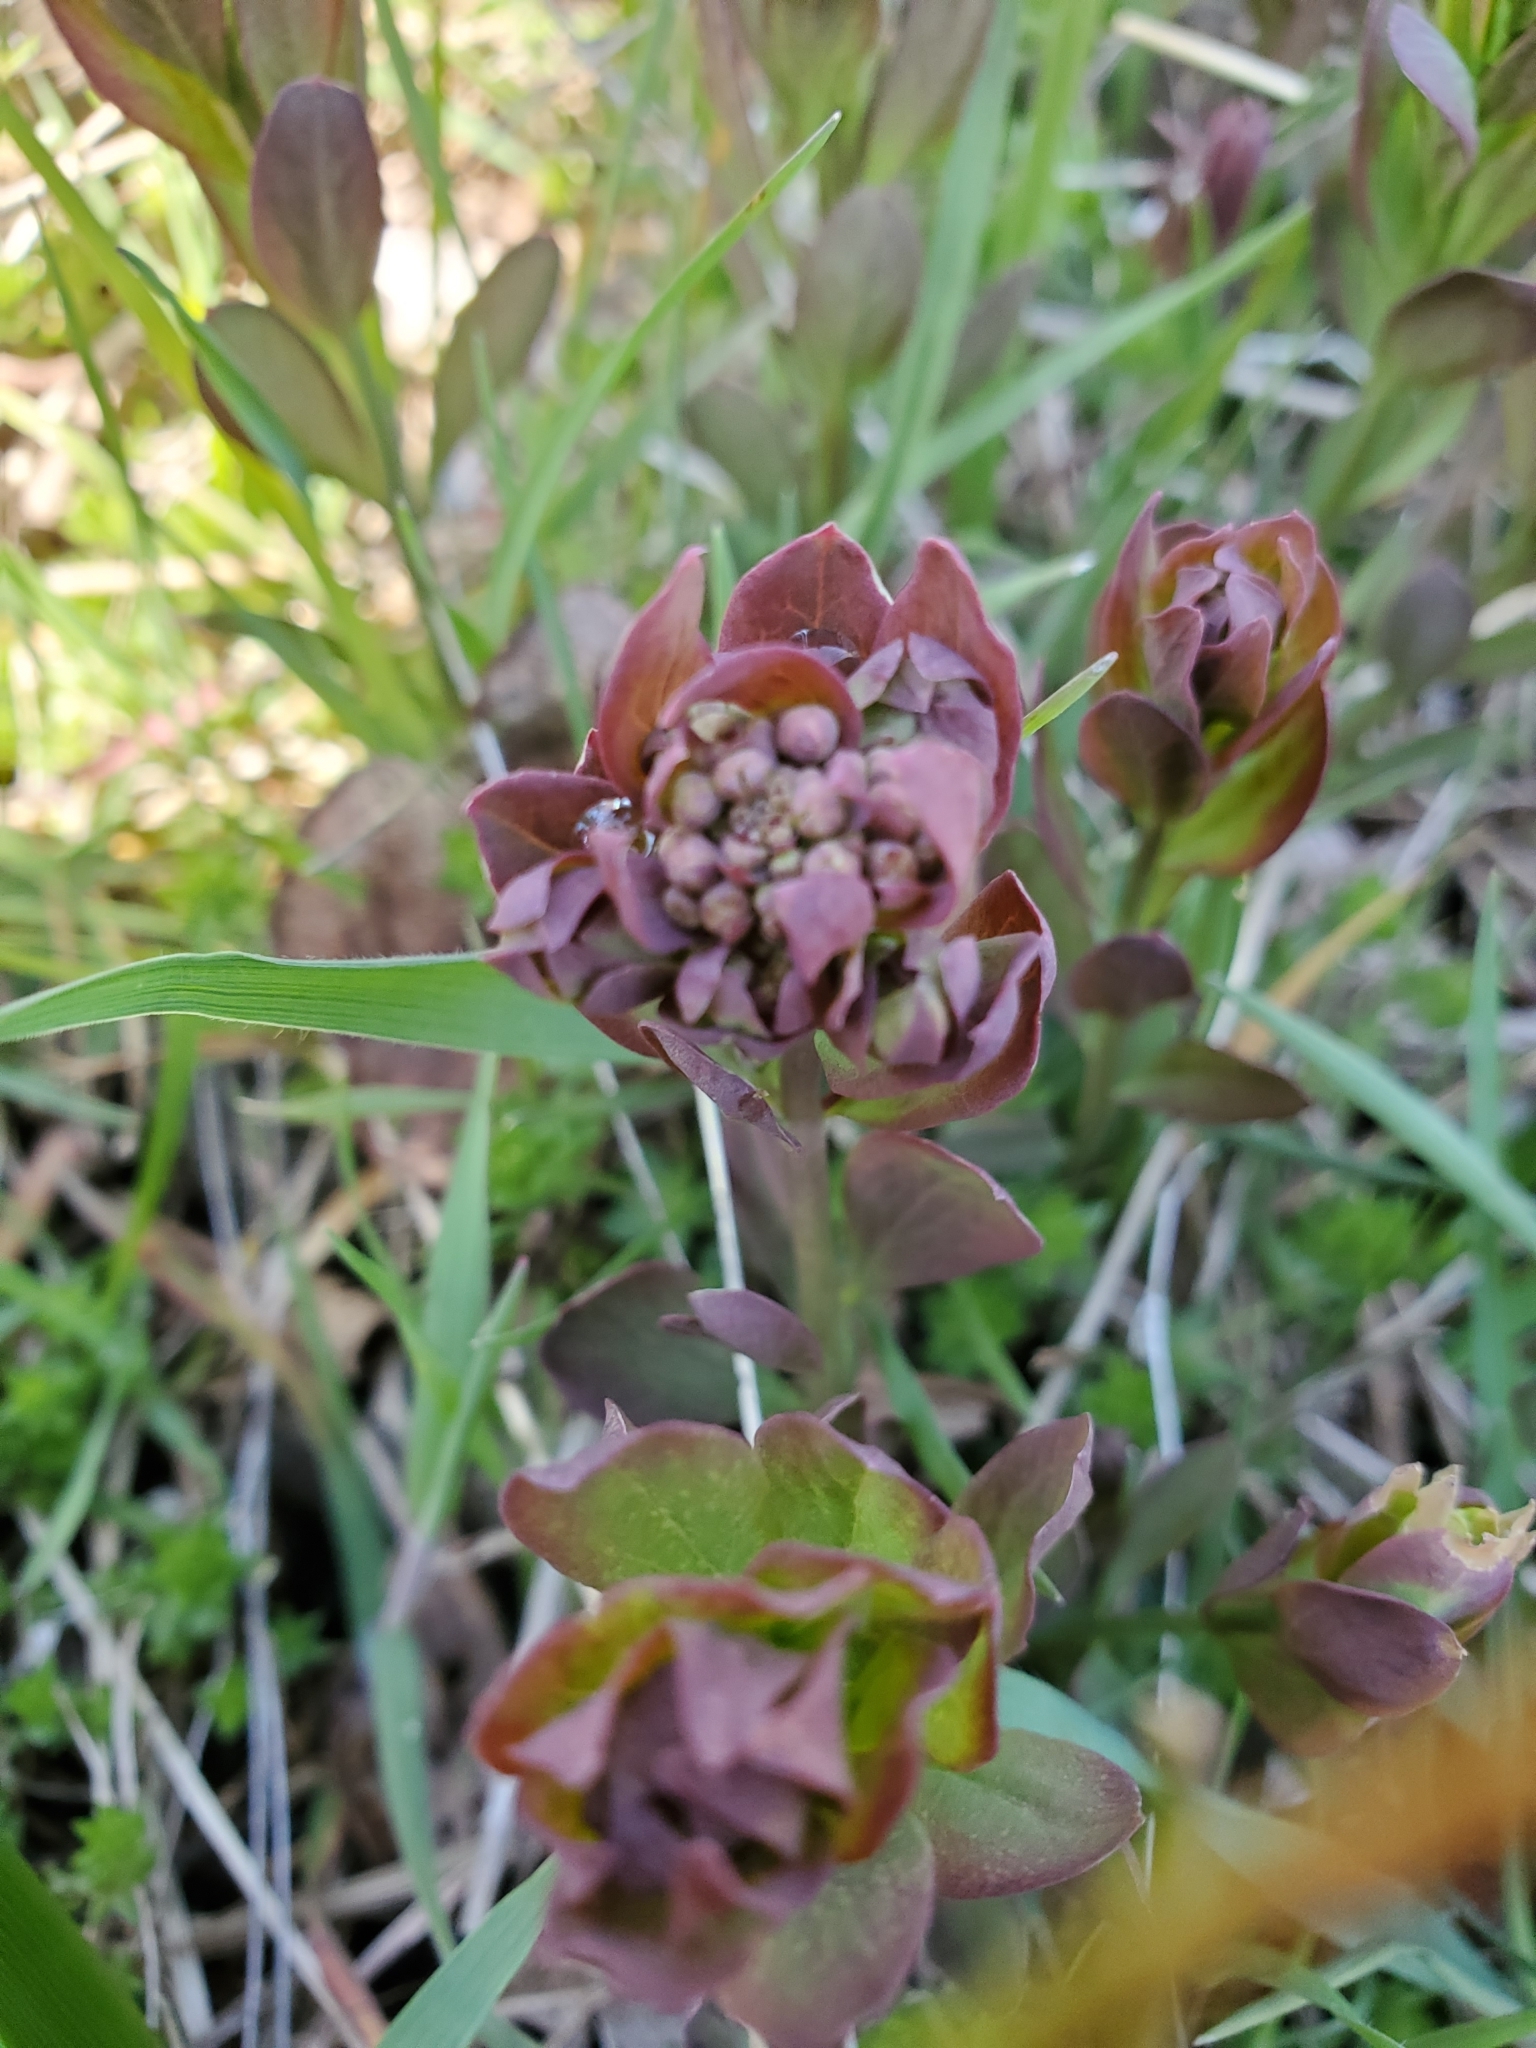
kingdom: Plantae
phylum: Tracheophyta
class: Magnoliopsida
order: Santalales
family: Comandraceae
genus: Comandra
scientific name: Comandra umbellata
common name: Bastard toadflax
